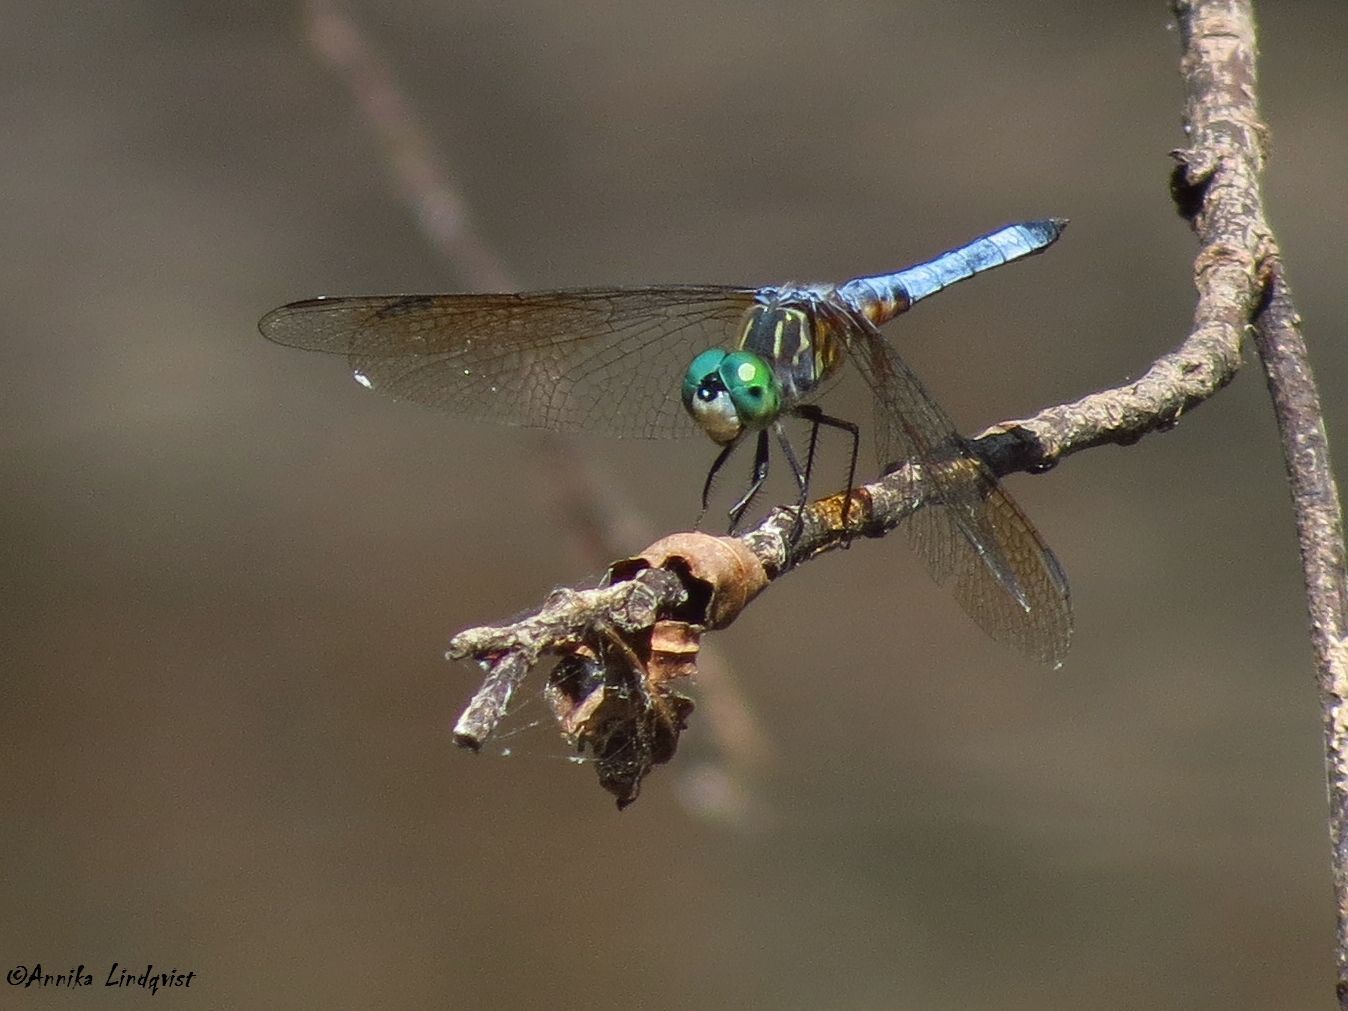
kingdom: Animalia
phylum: Arthropoda
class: Insecta
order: Odonata
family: Libellulidae
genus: Pachydiplax
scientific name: Pachydiplax longipennis
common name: Blue dasher
